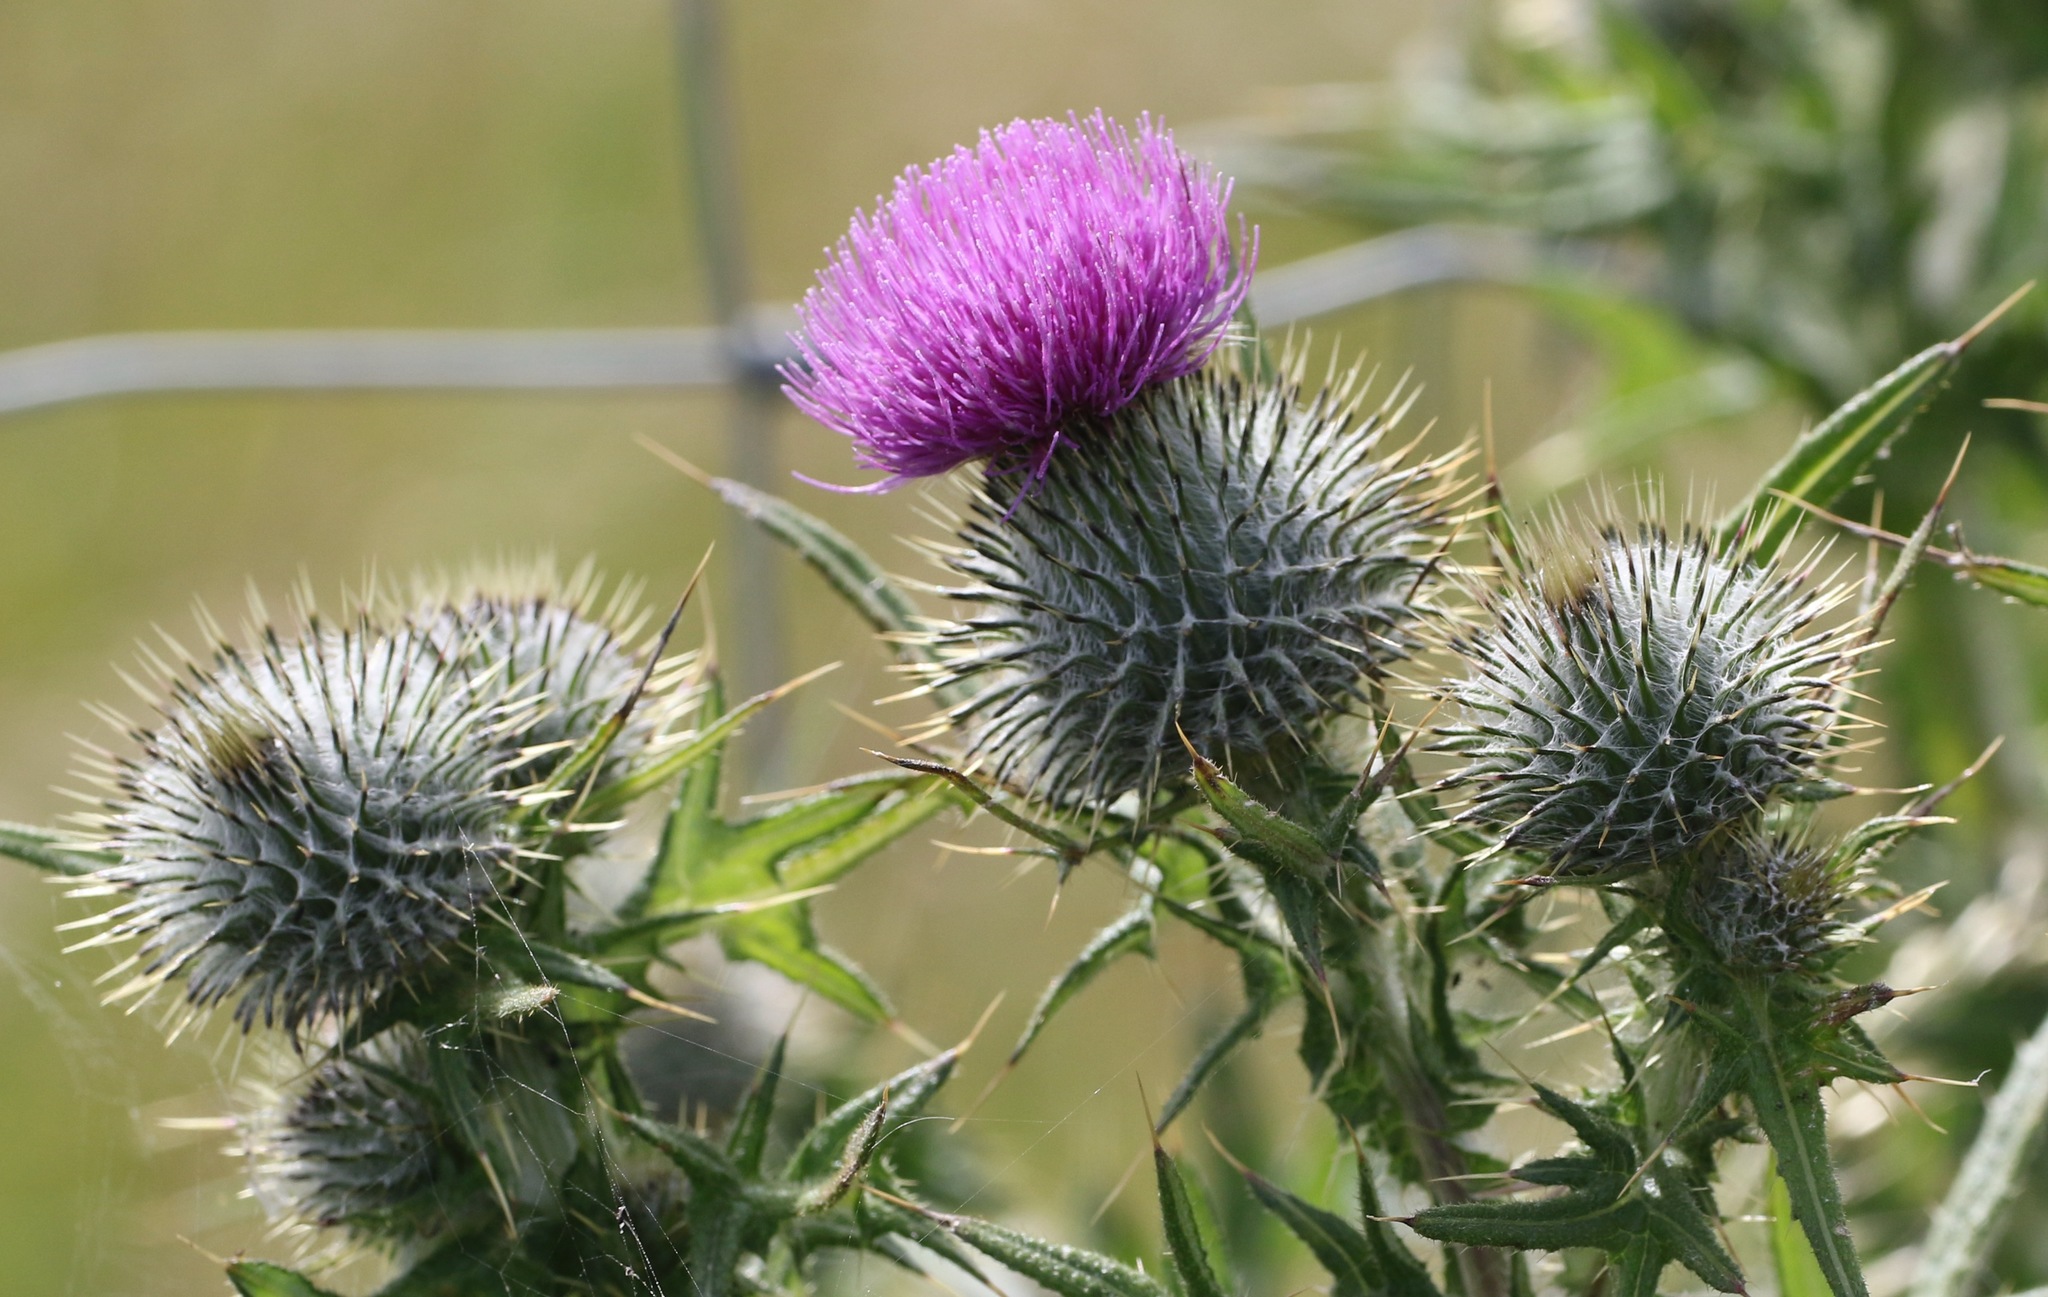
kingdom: Plantae
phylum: Tracheophyta
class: Magnoliopsida
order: Asterales
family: Asteraceae
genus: Cirsium
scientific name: Cirsium vulgare
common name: Bull thistle
